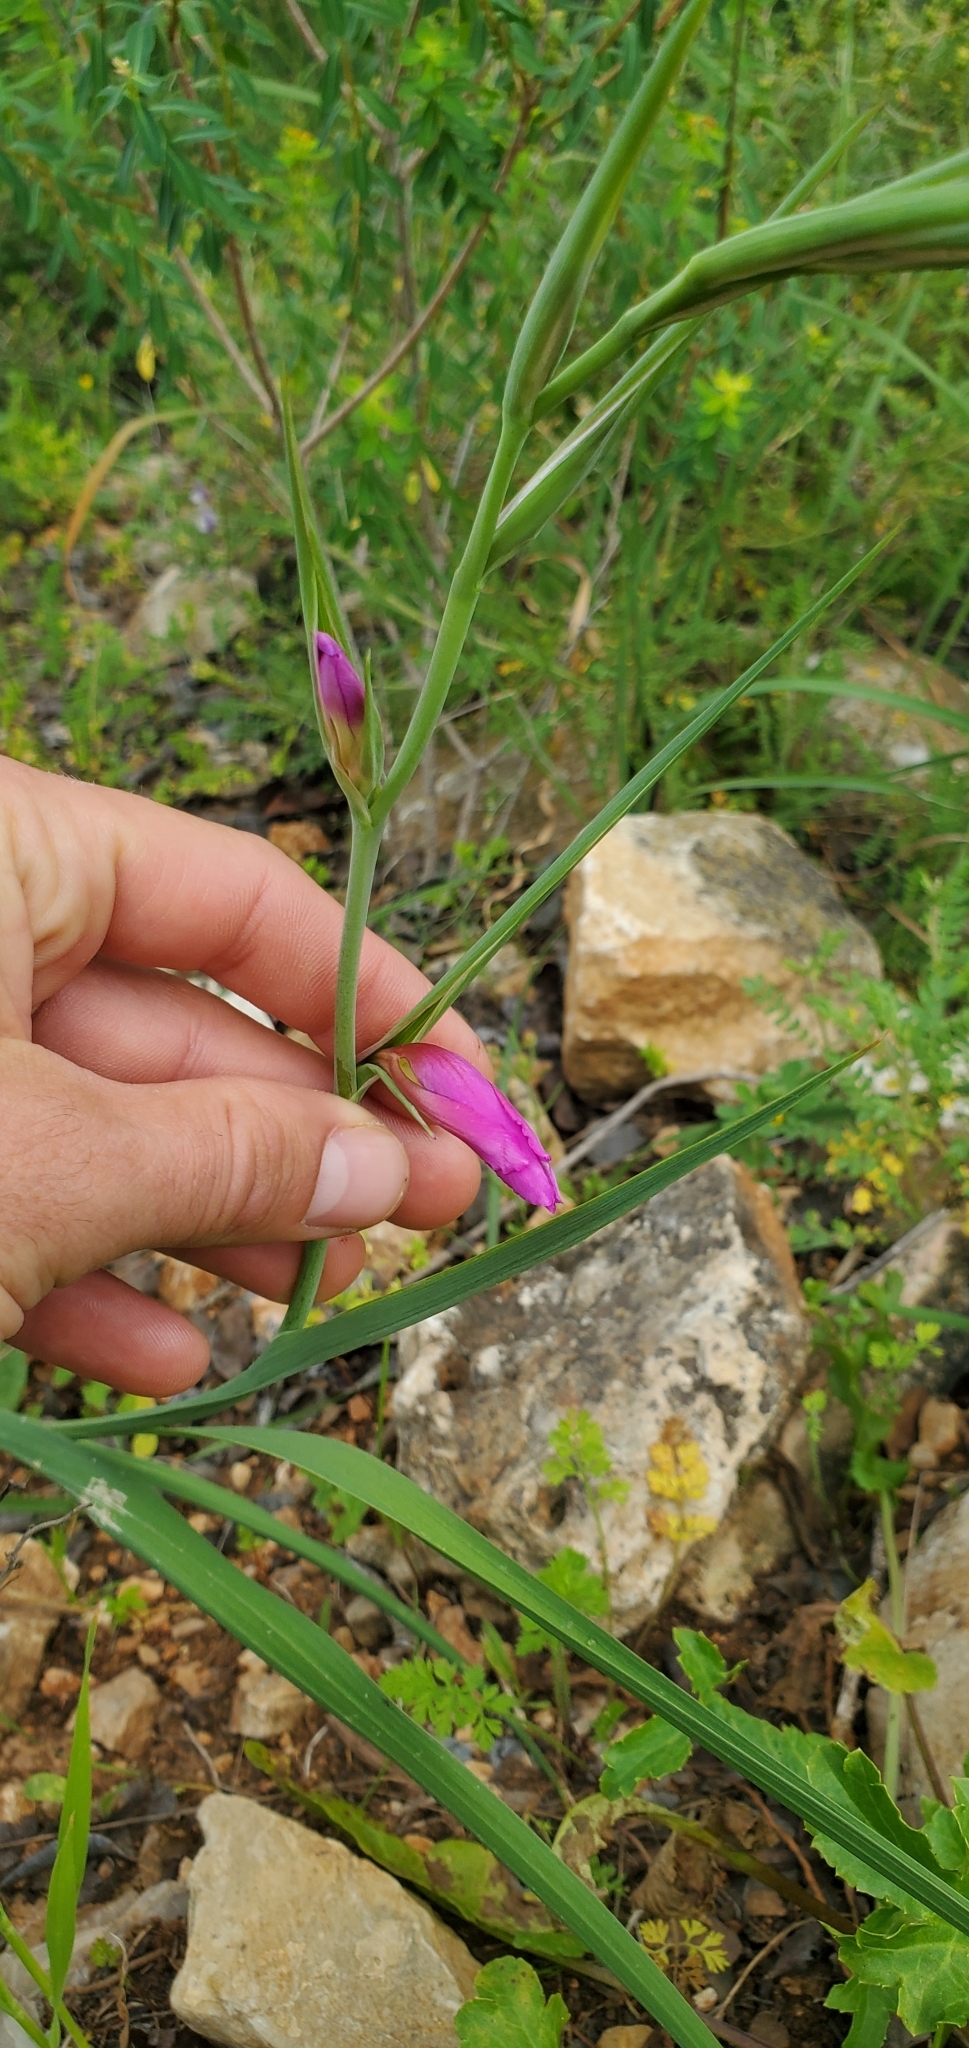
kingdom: Plantae
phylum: Tracheophyta
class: Liliopsida
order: Asparagales
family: Iridaceae
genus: Gladiolus
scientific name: Gladiolus italicus
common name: Field gladiolus
